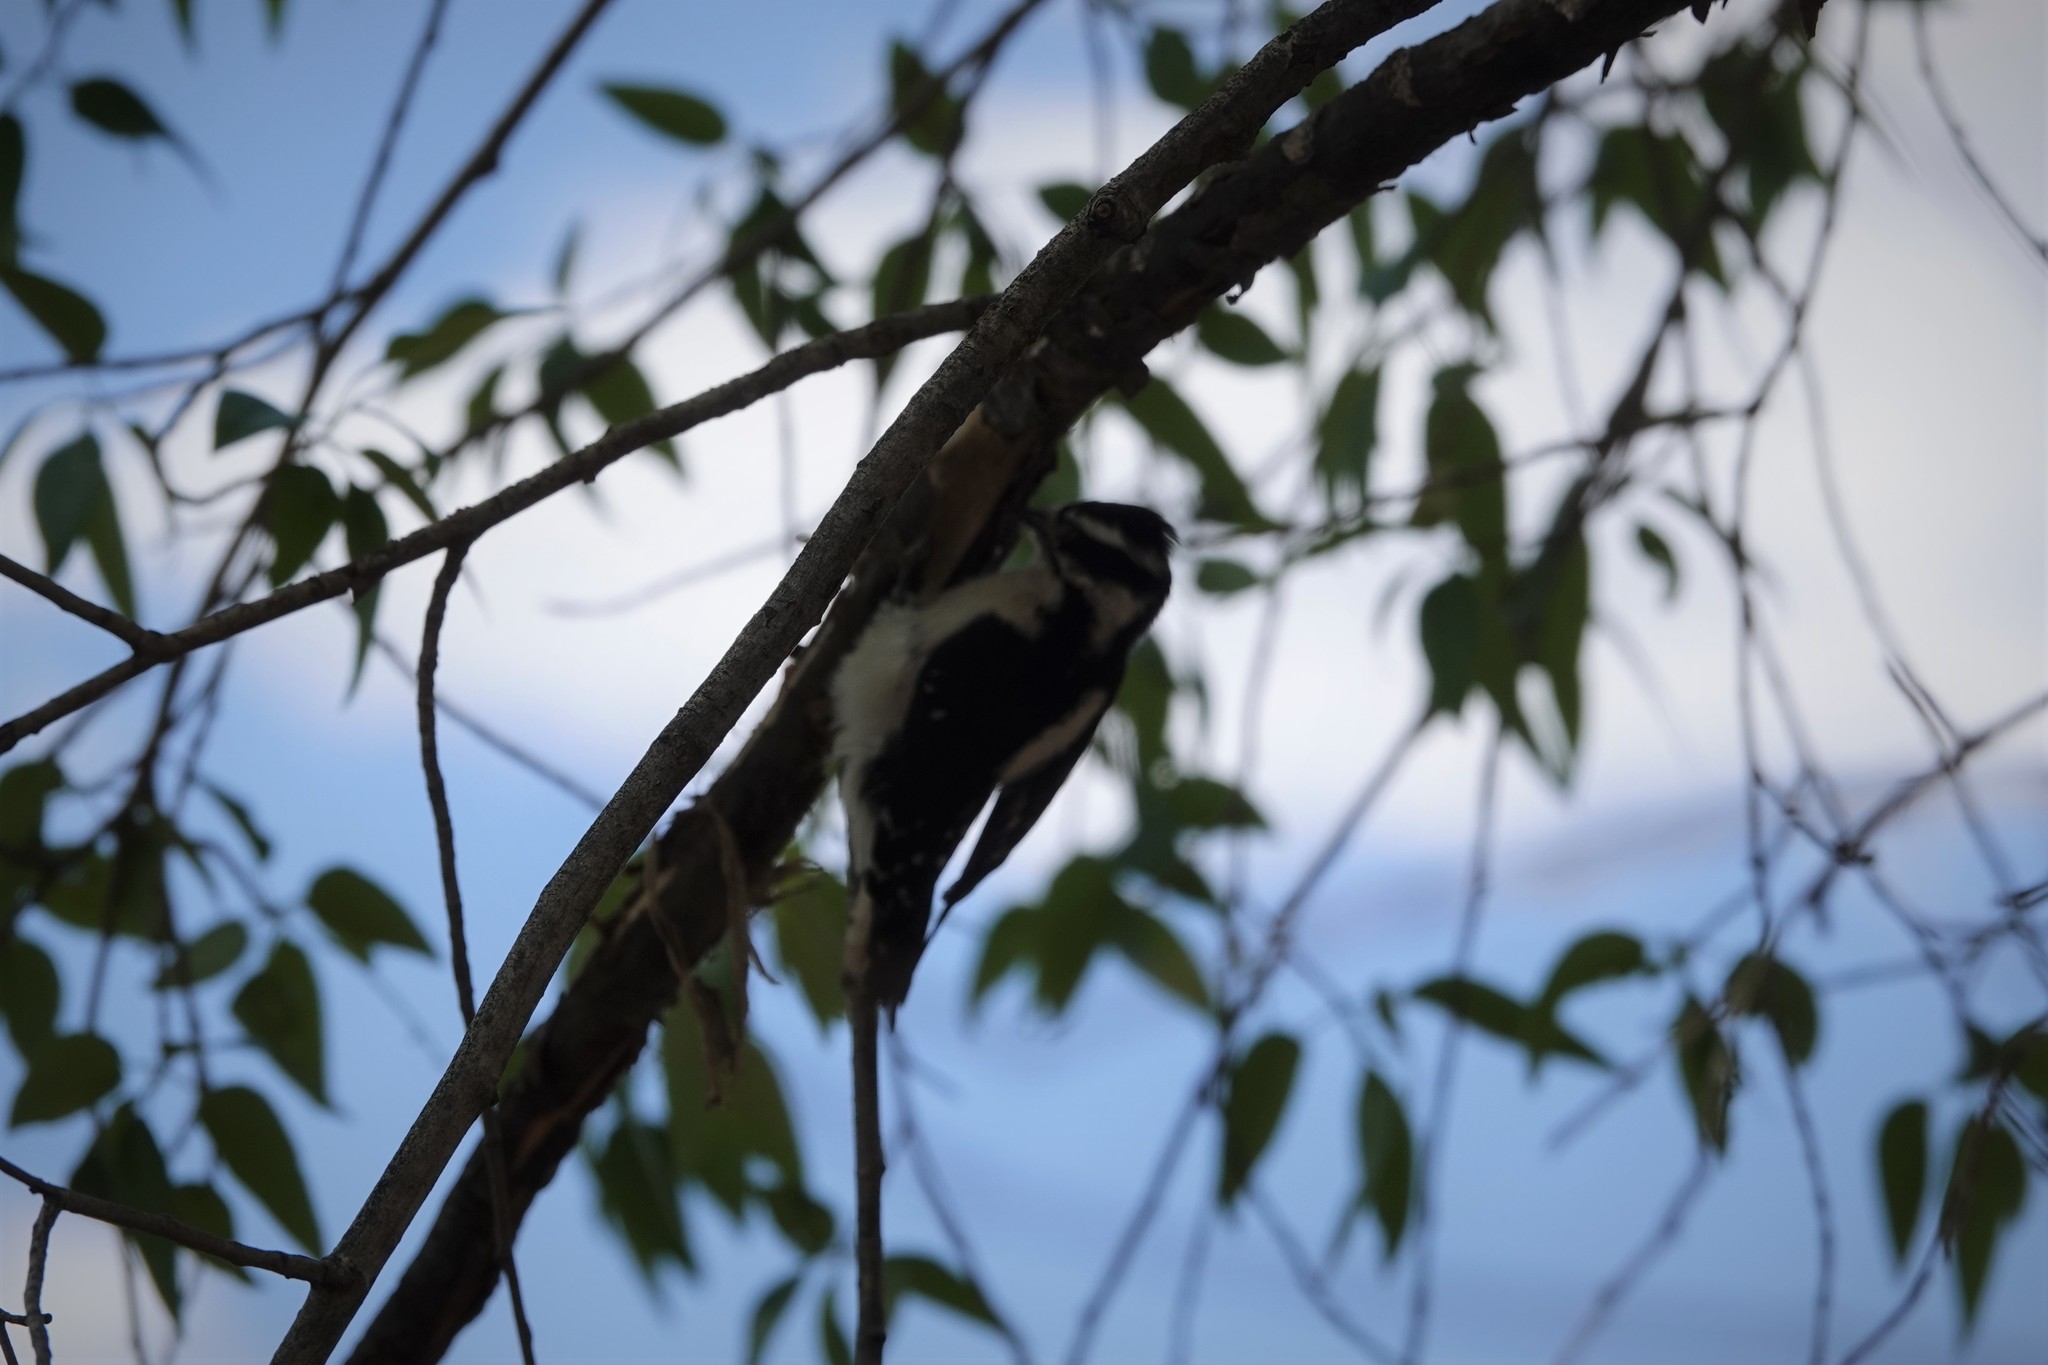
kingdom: Animalia
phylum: Chordata
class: Aves
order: Piciformes
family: Picidae
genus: Dryobates
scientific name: Dryobates pubescens
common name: Downy woodpecker
